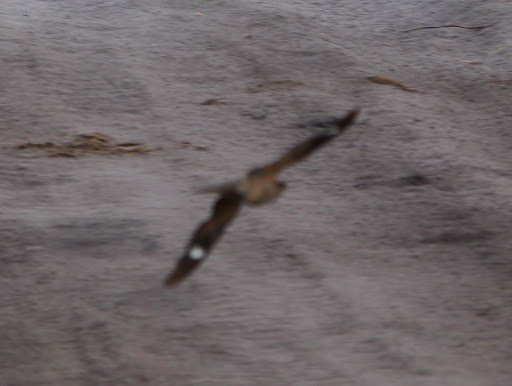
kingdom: Animalia
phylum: Chordata
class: Aves
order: Caprimulgiformes
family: Caprimulgidae
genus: Caprimulgus
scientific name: Caprimulgus fossii
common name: Square-tailed nightjar
